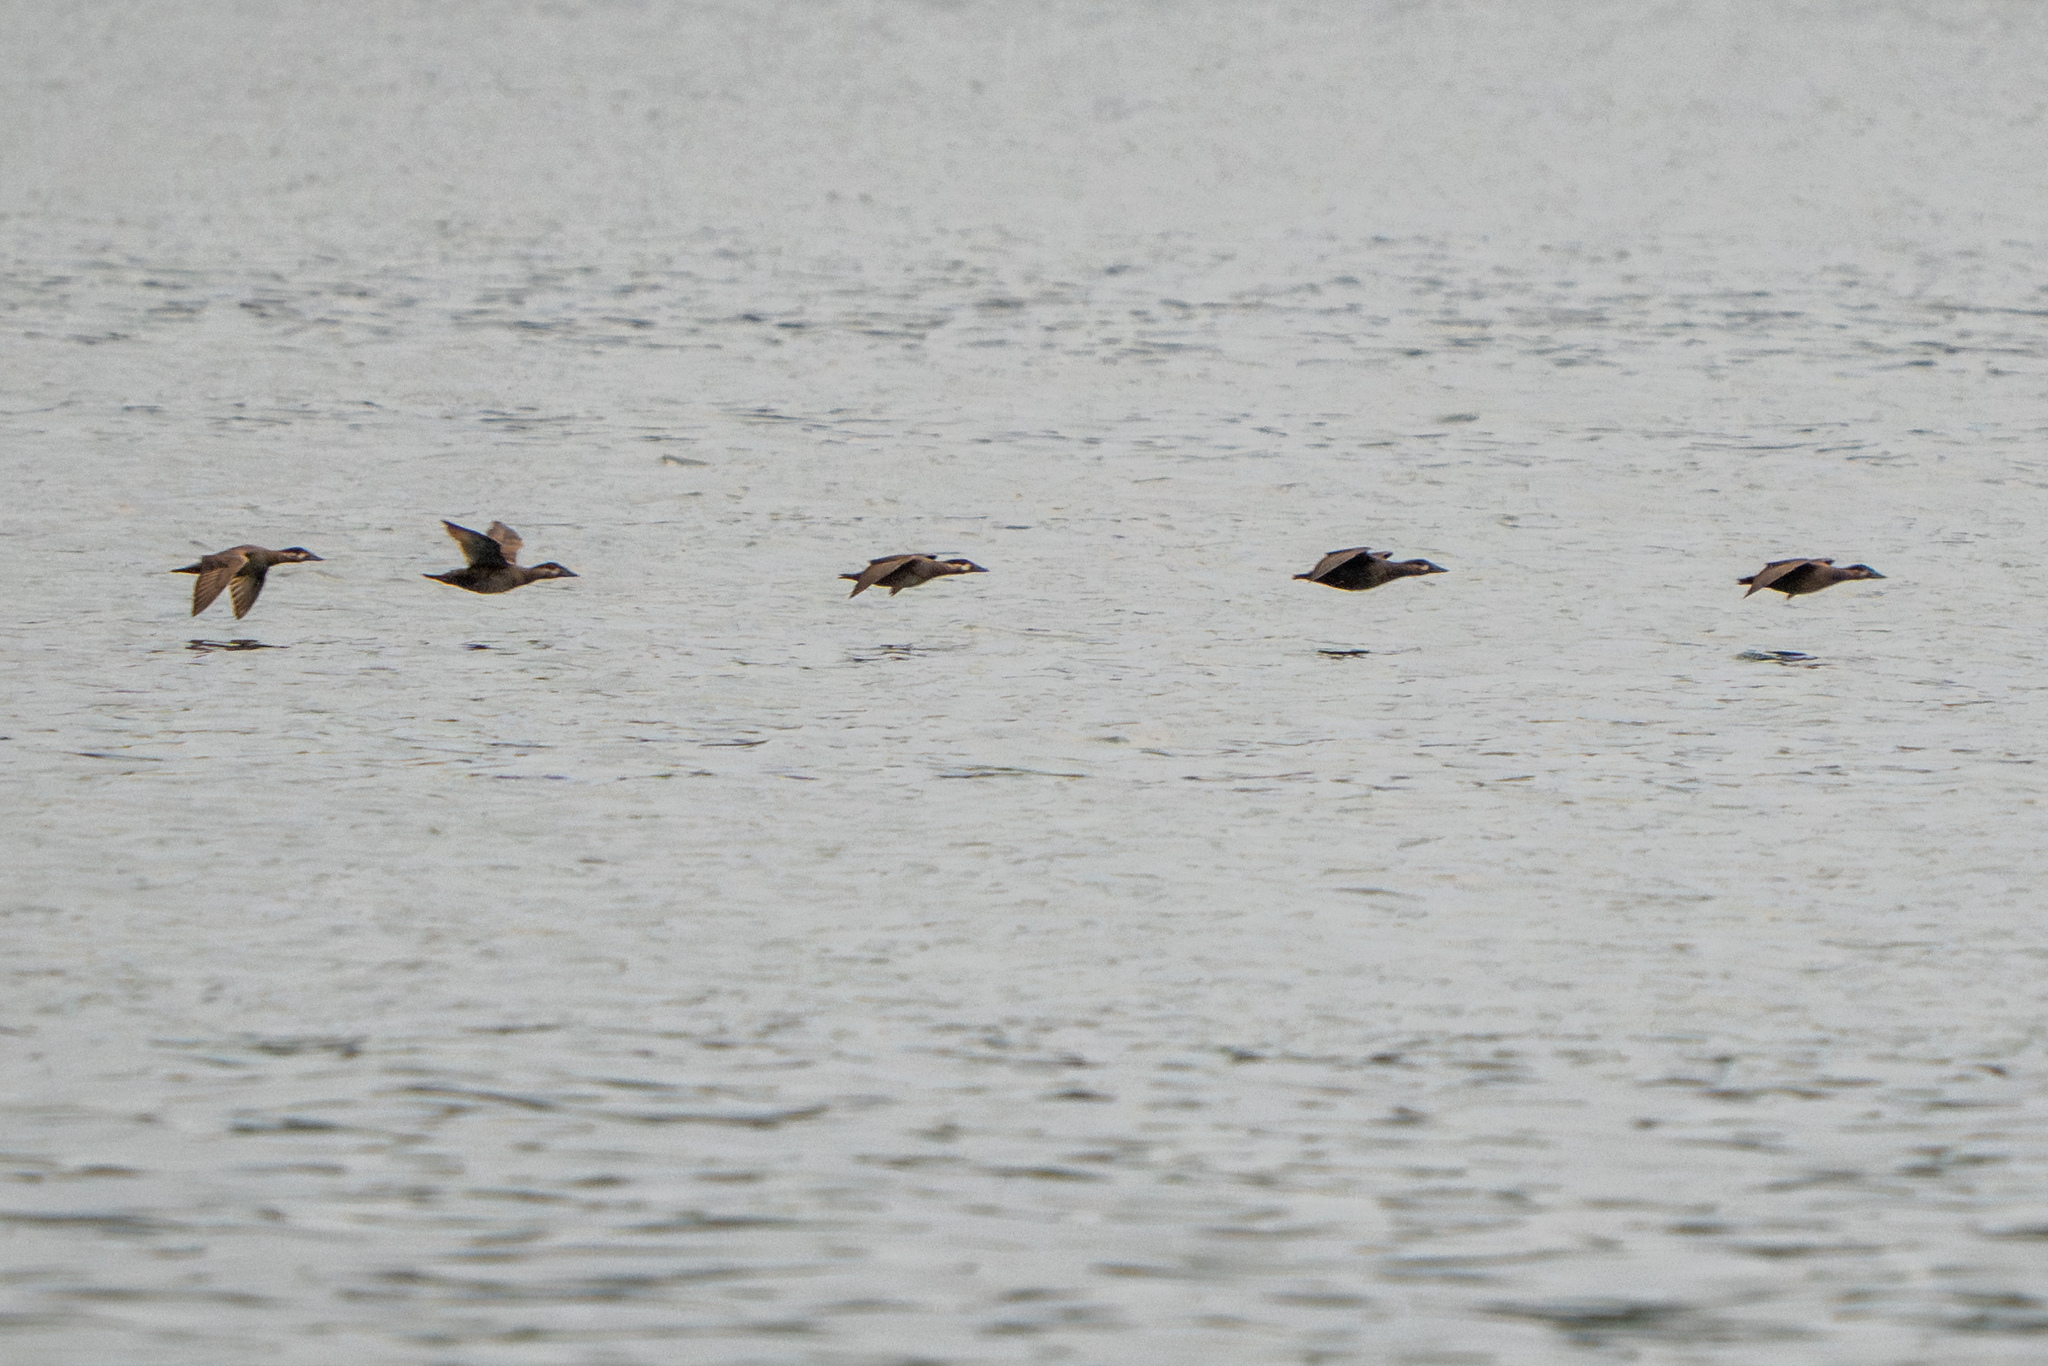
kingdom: Animalia
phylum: Chordata
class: Aves
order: Anseriformes
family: Anatidae
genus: Melanitta
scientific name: Melanitta perspicillata
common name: Surf scoter
